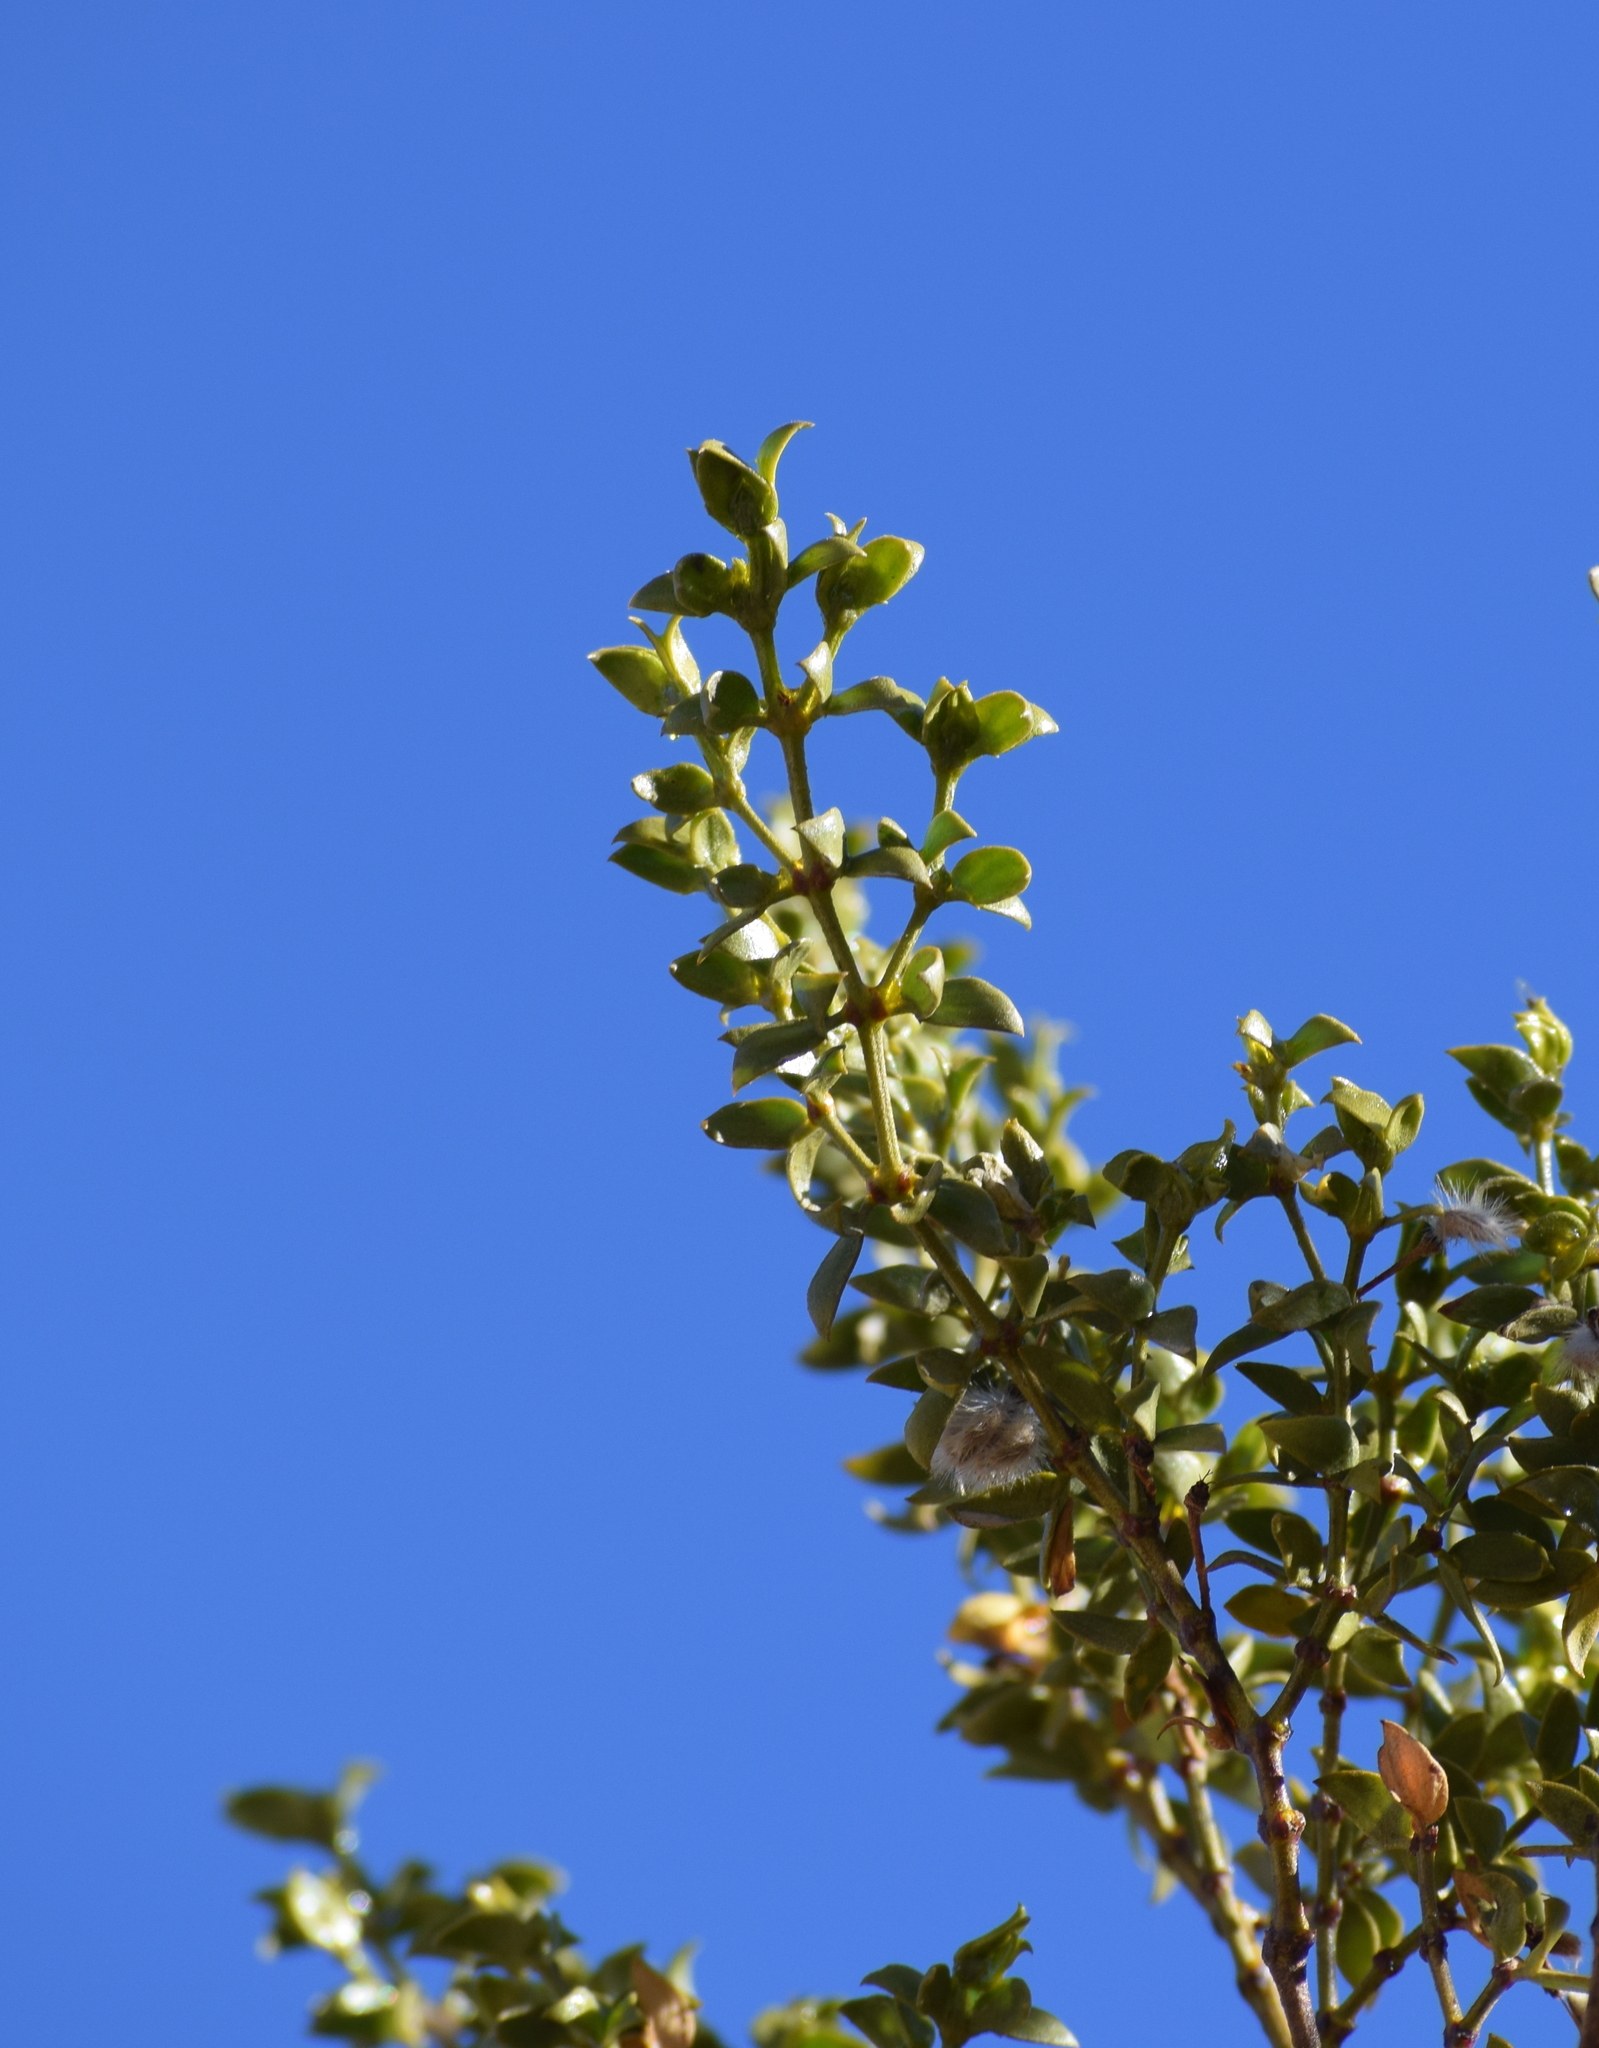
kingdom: Plantae
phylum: Tracheophyta
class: Magnoliopsida
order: Zygophyllales
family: Zygophyllaceae
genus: Larrea
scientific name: Larrea tridentata
